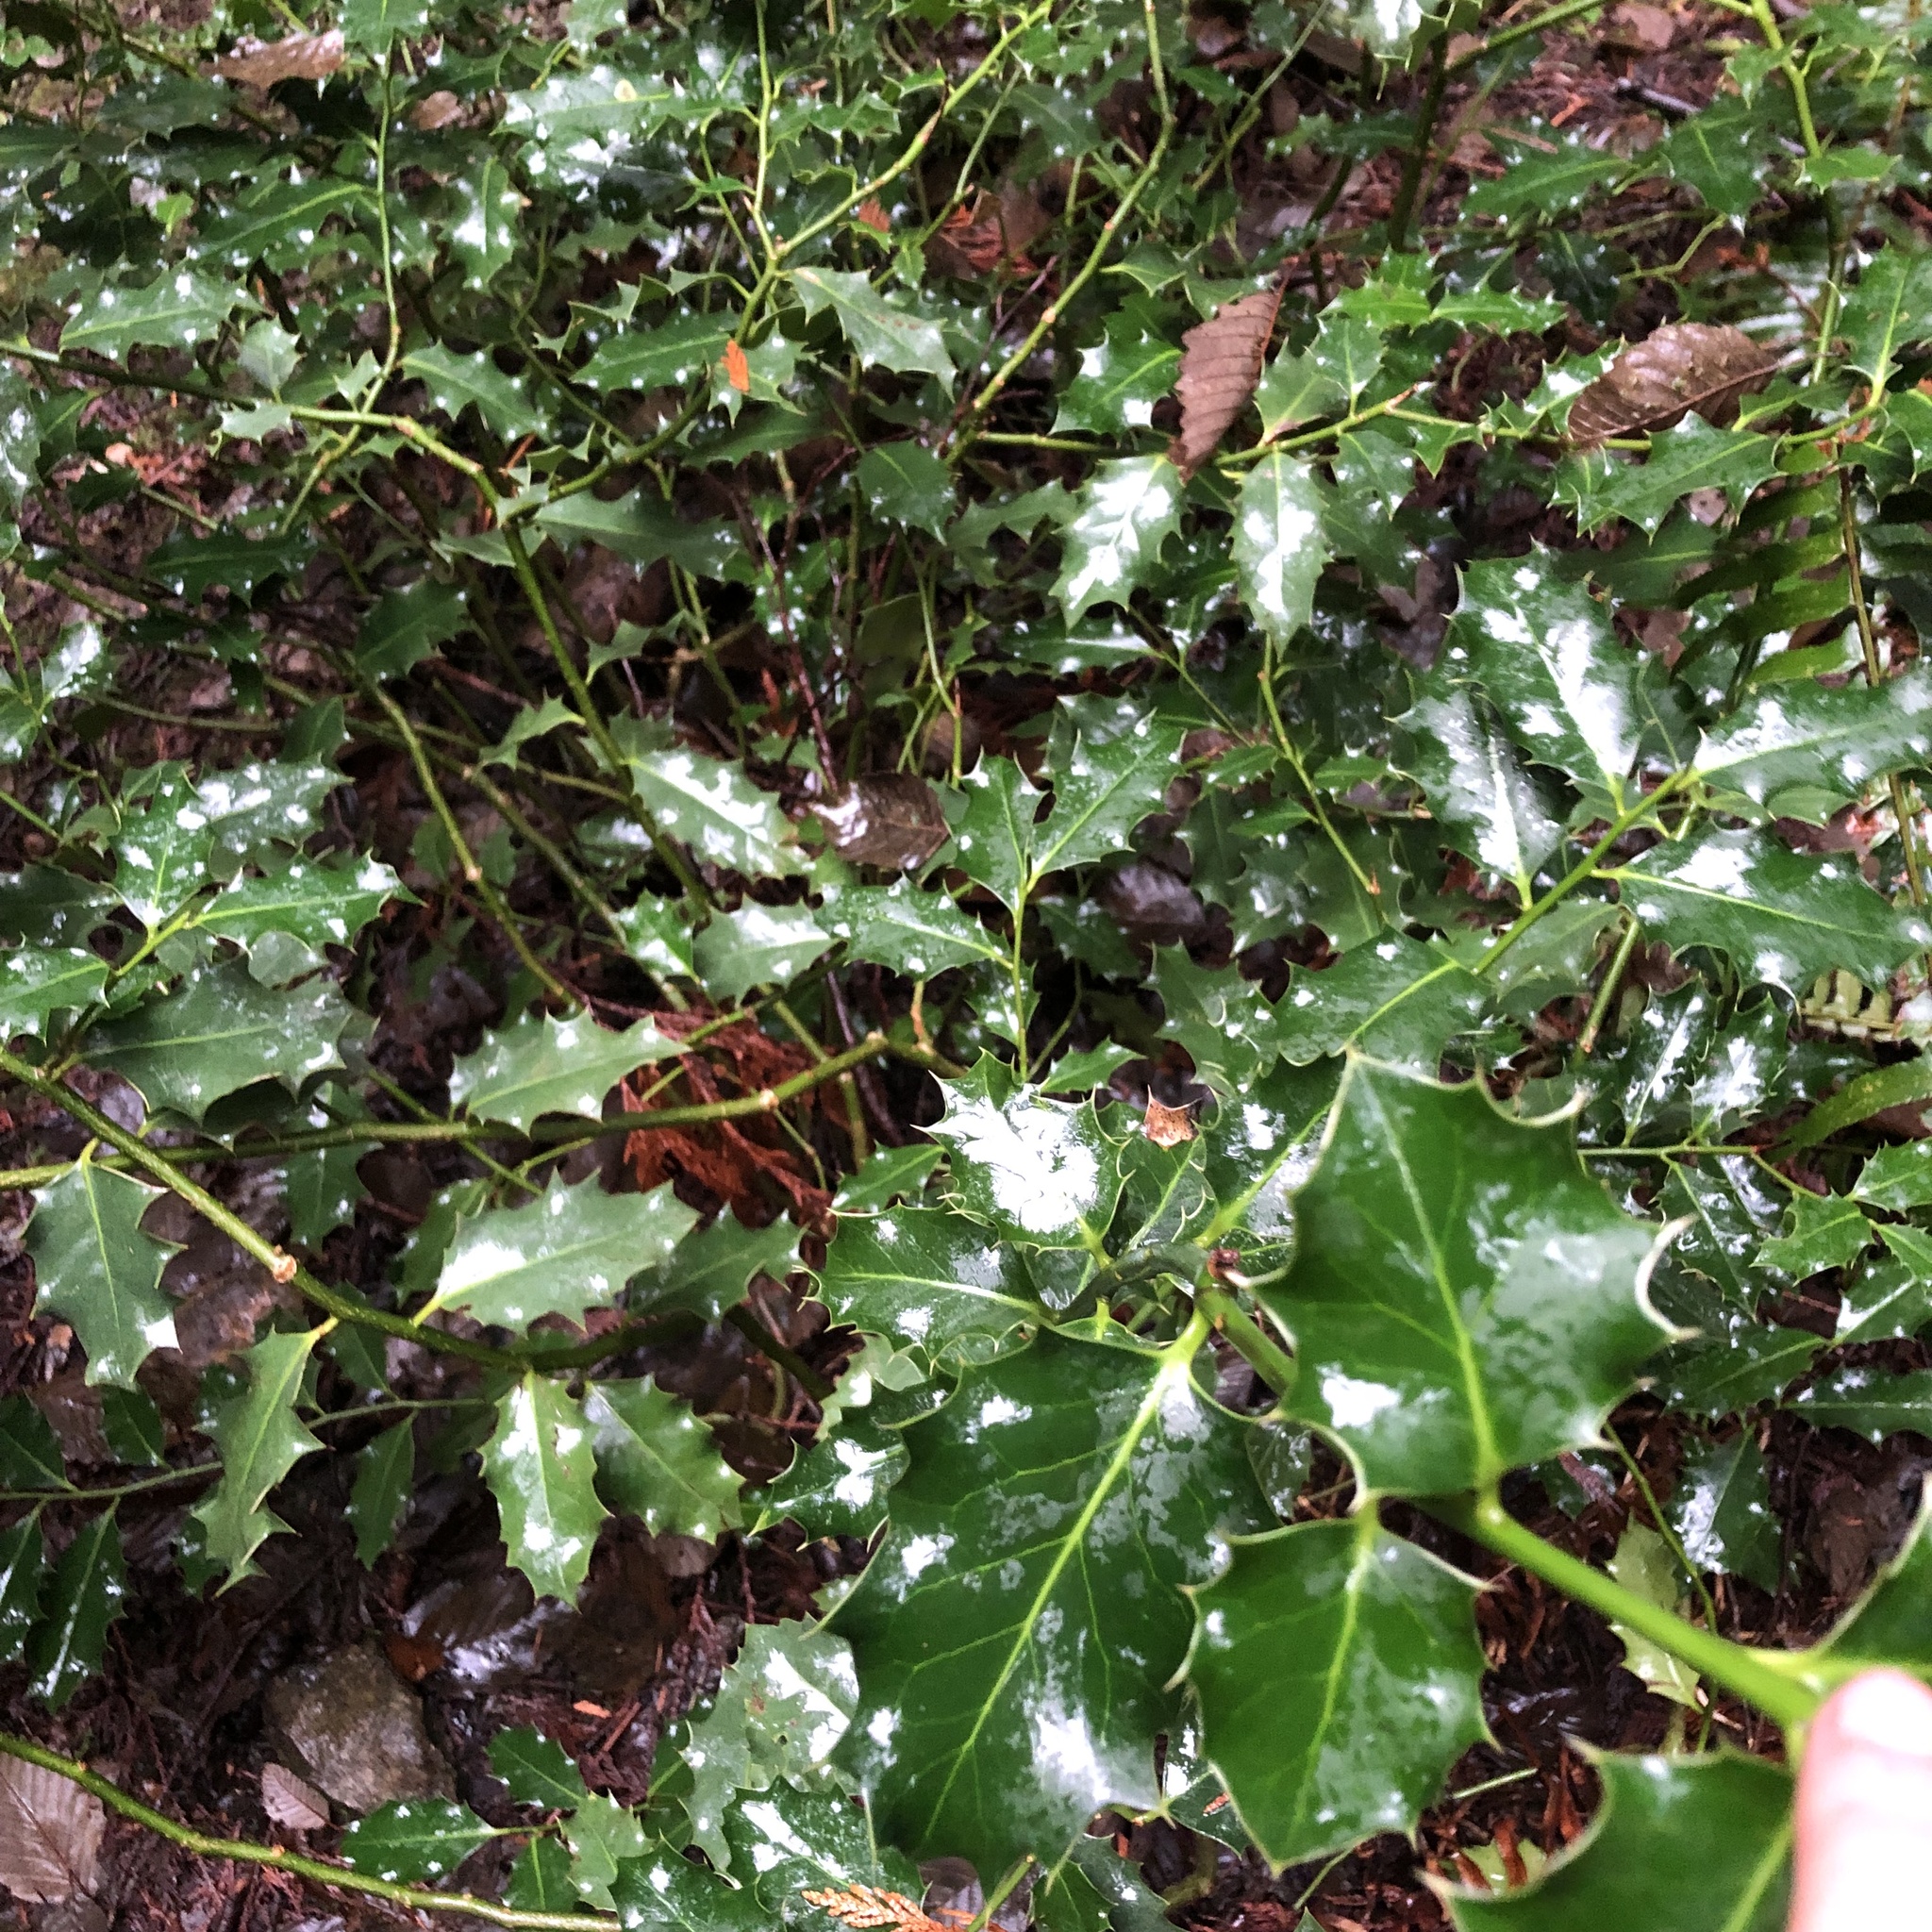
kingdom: Plantae
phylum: Tracheophyta
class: Magnoliopsida
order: Aquifoliales
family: Aquifoliaceae
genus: Ilex
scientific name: Ilex aquifolium
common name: English holly
